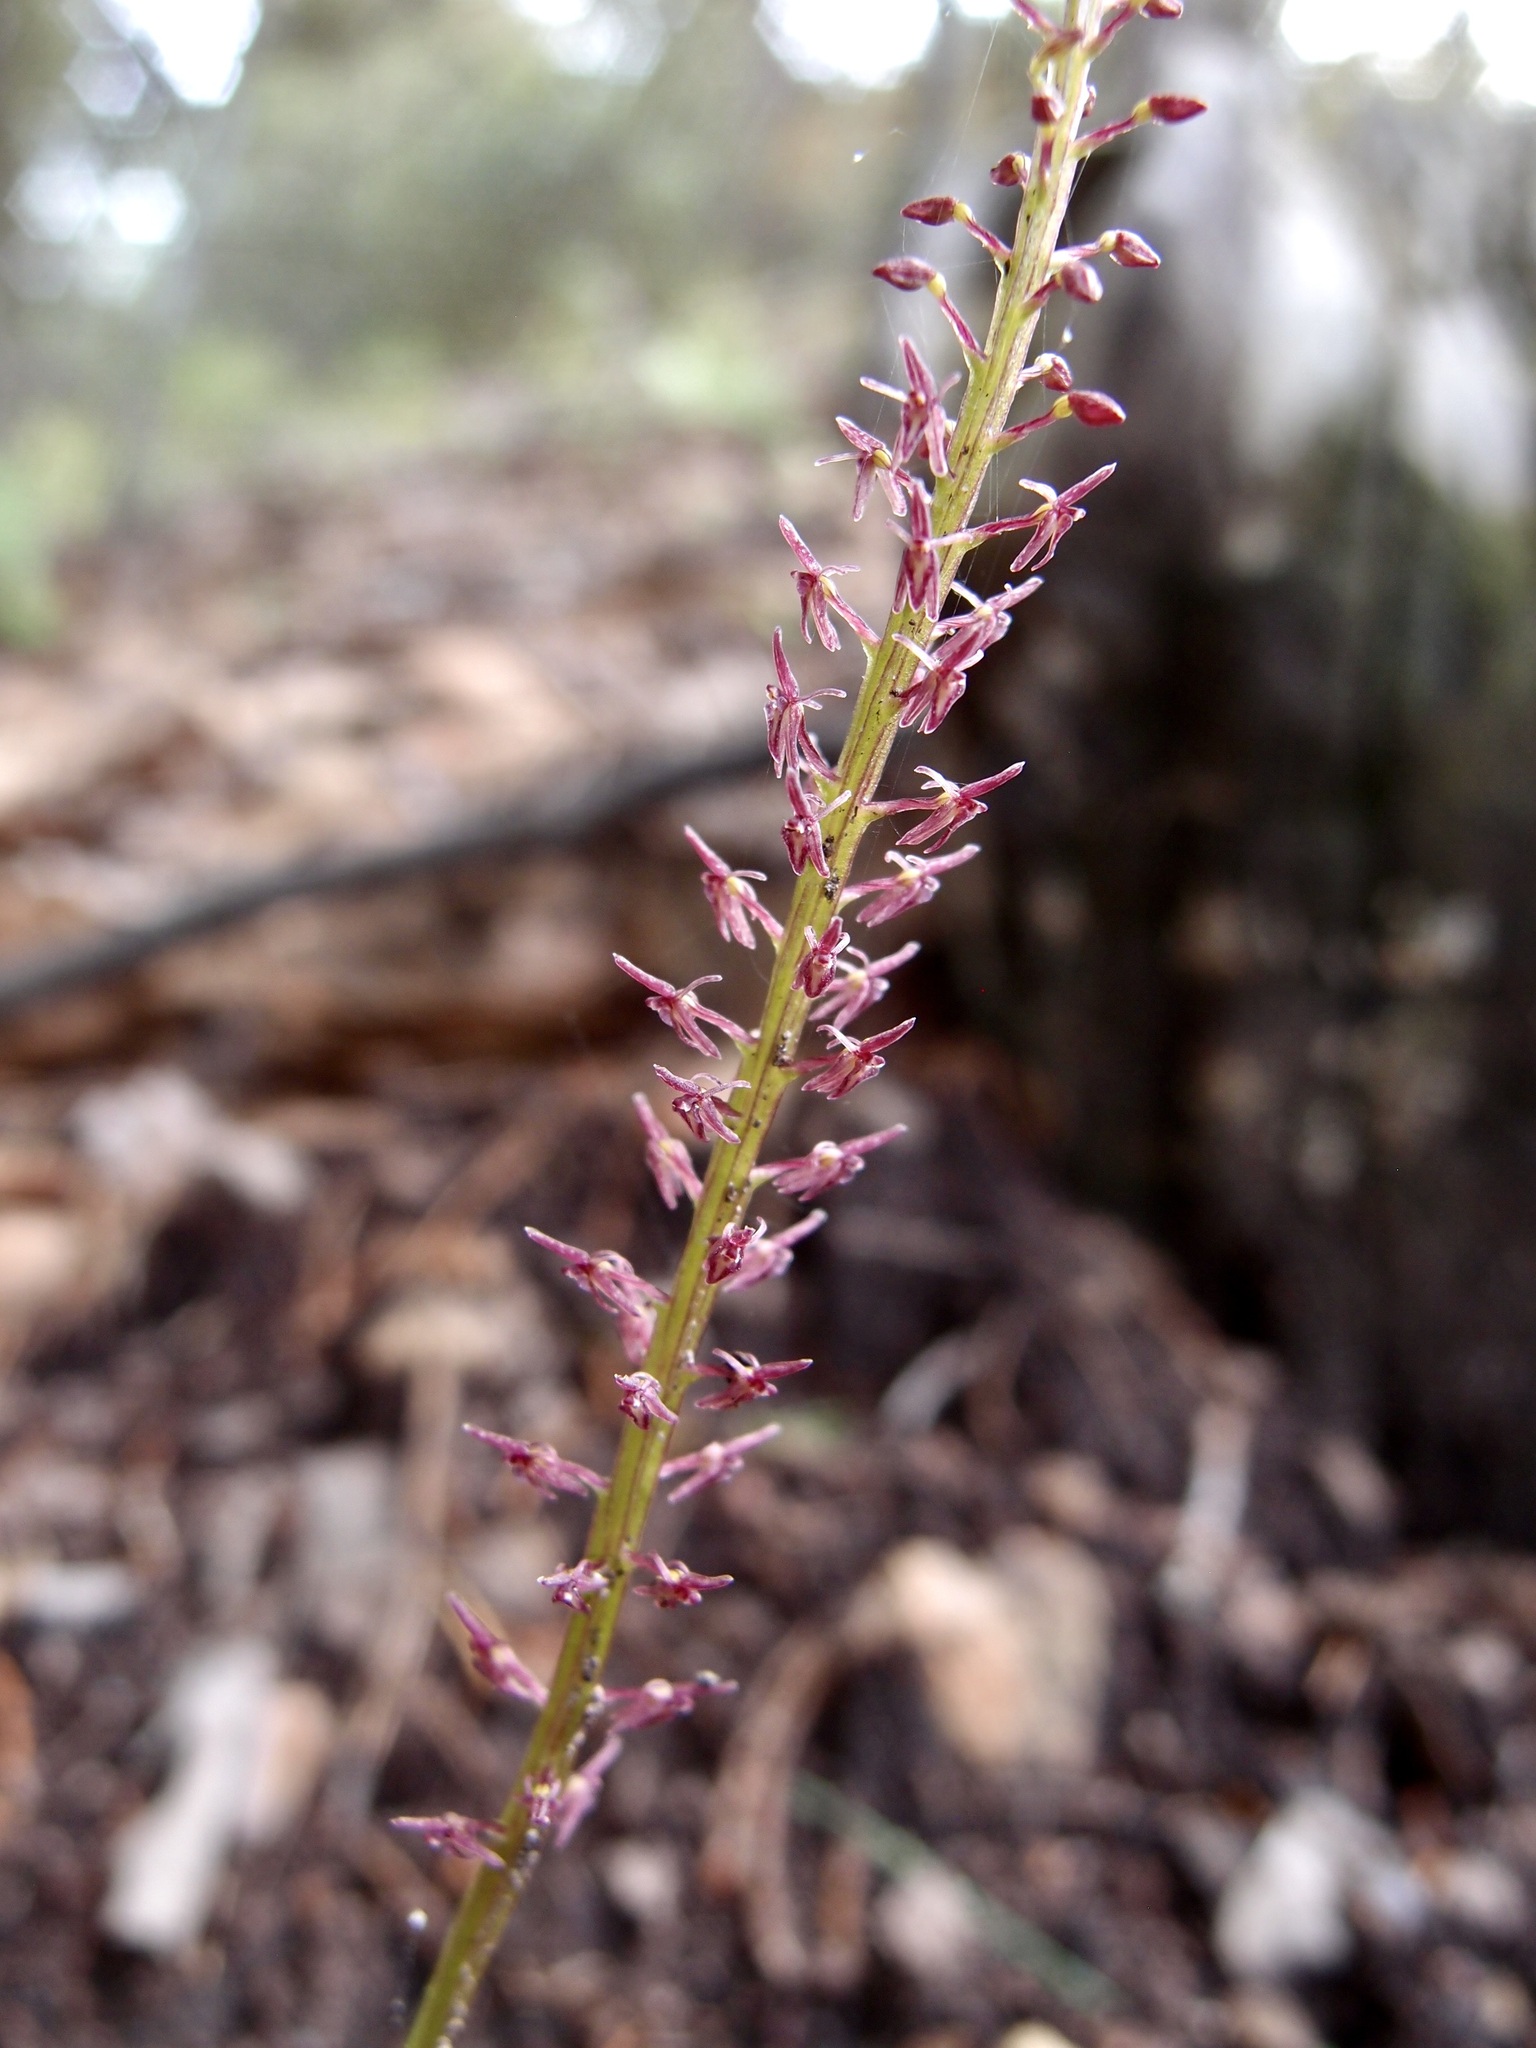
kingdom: Plantae
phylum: Tracheophyta
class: Liliopsida
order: Asparagales
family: Orchidaceae
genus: Tamayorkis
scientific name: Tamayorkis porphyrea
